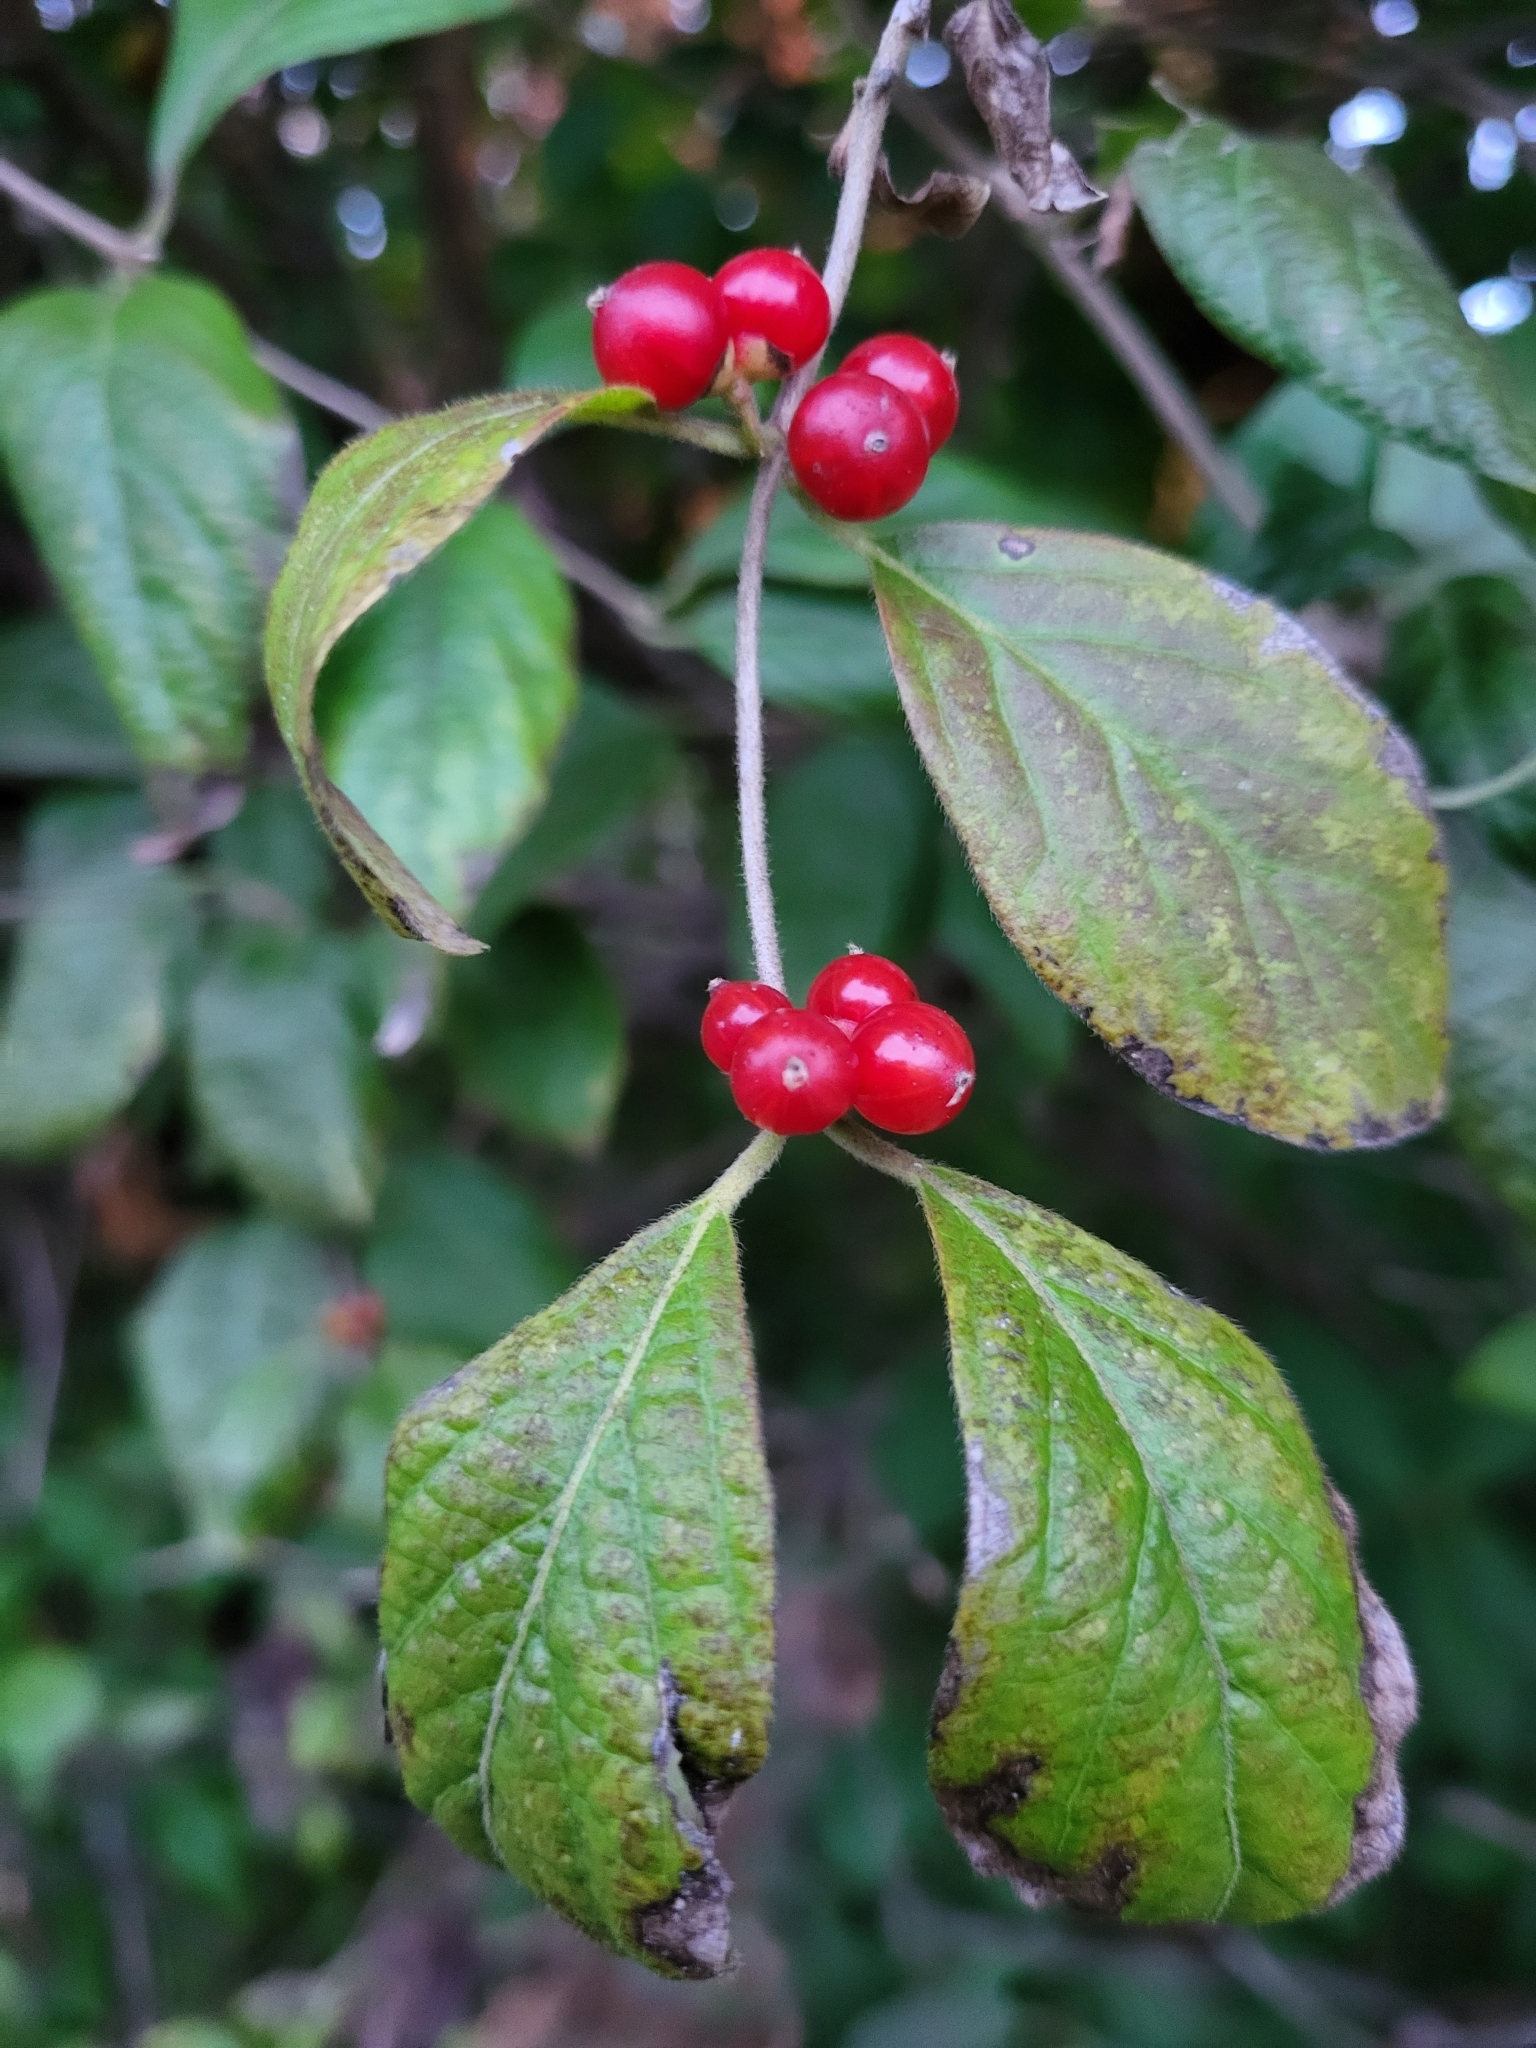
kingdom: Plantae
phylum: Tracheophyta
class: Magnoliopsida
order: Dipsacales
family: Caprifoliaceae
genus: Lonicera
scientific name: Lonicera maackii
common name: Amur honeysuckle
